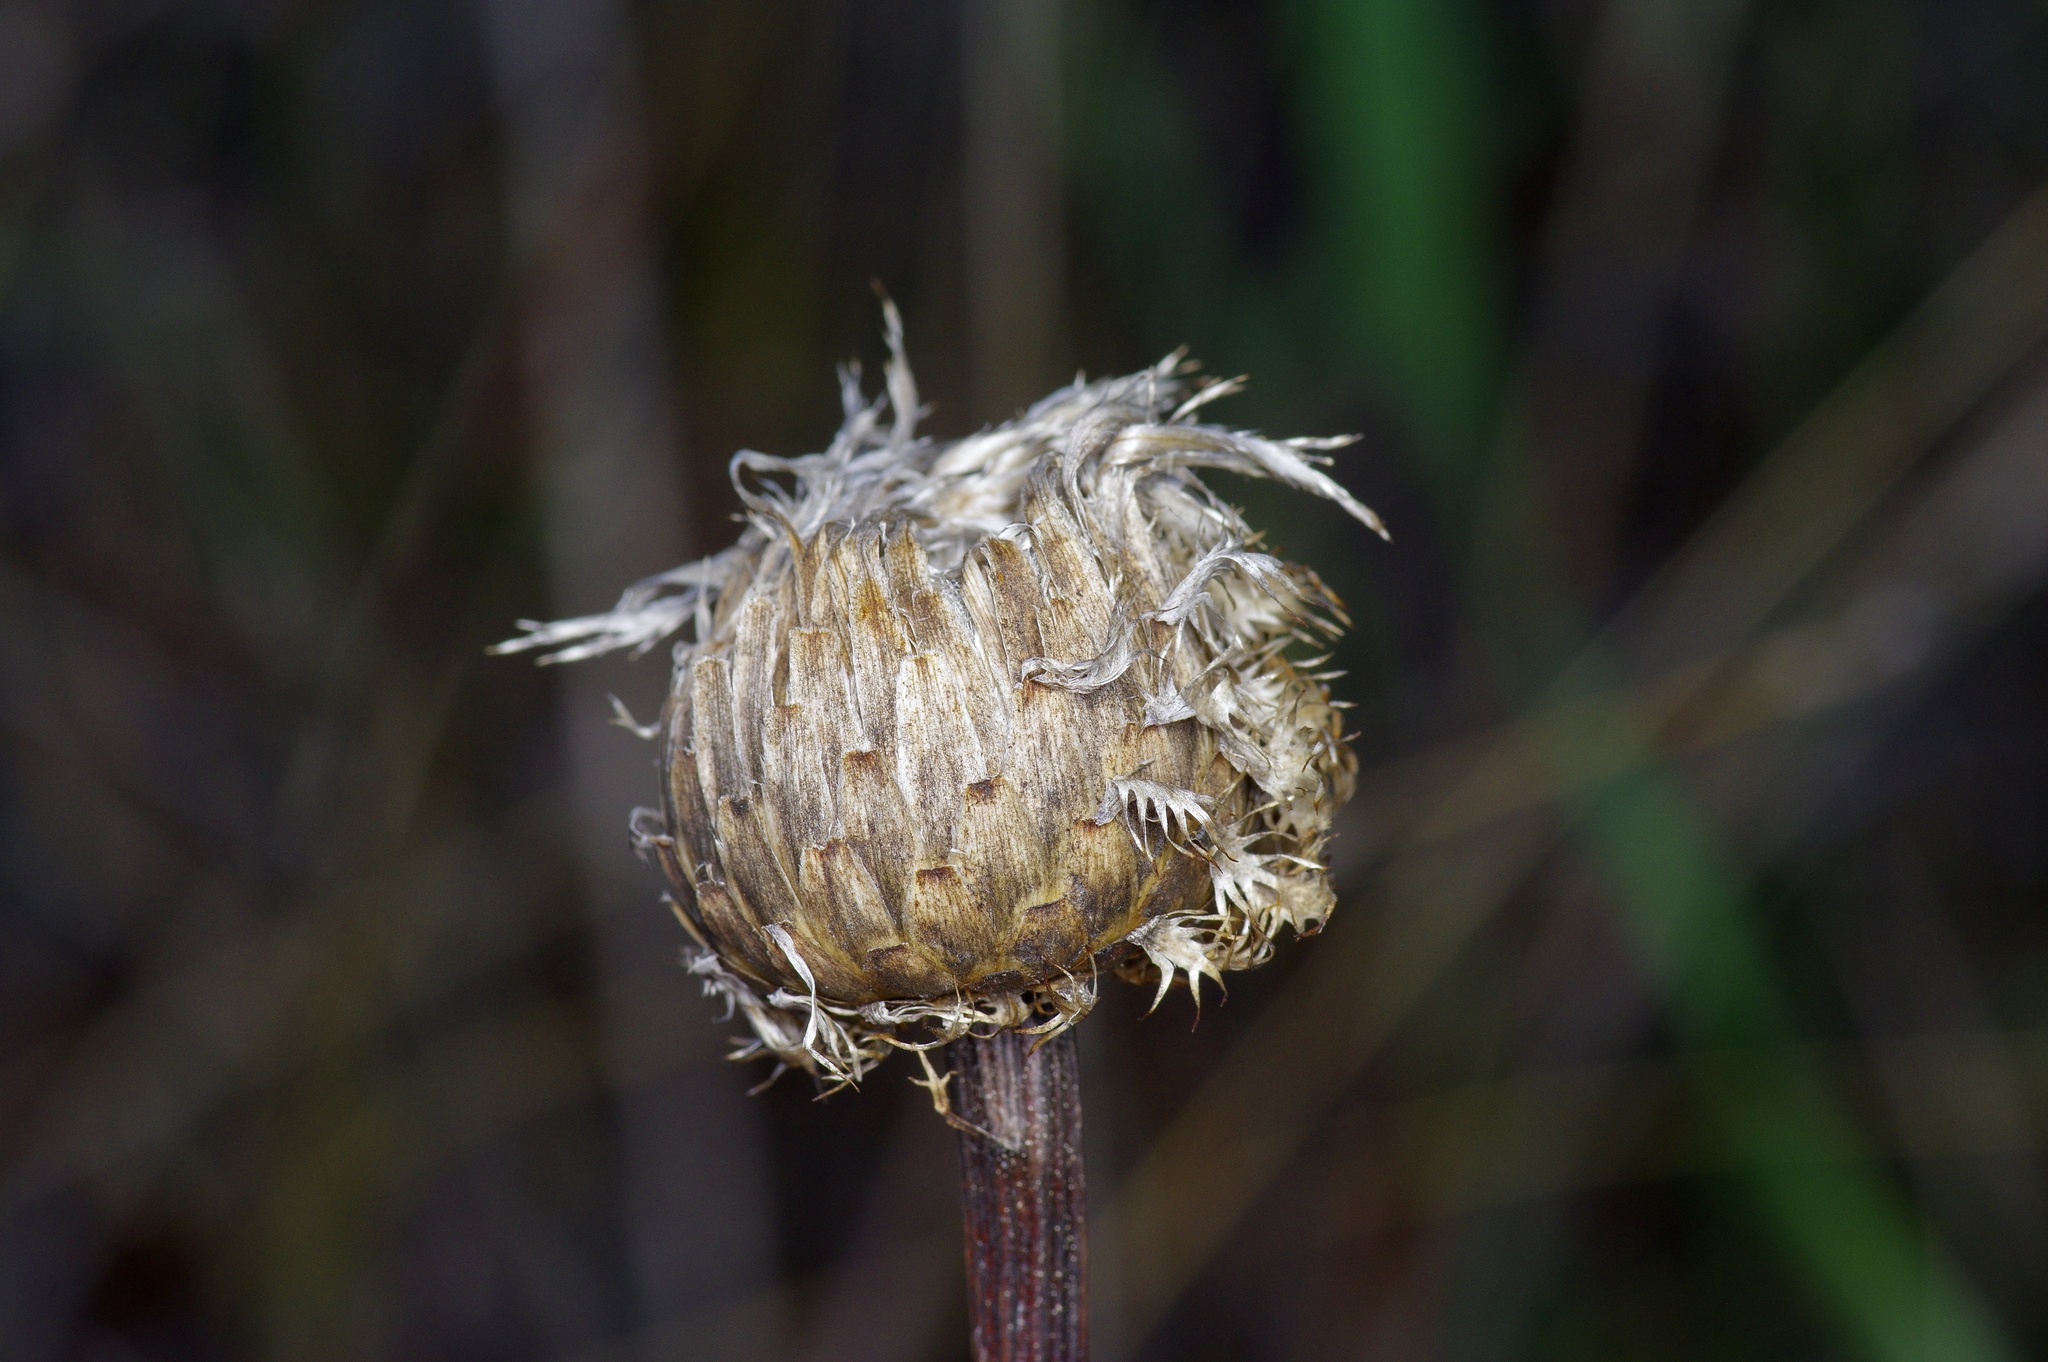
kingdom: Plantae
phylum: Tracheophyta
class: Magnoliopsida
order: Asterales
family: Asteraceae
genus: Plectocephalus
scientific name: Plectocephalus americanus
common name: American basket-flower
